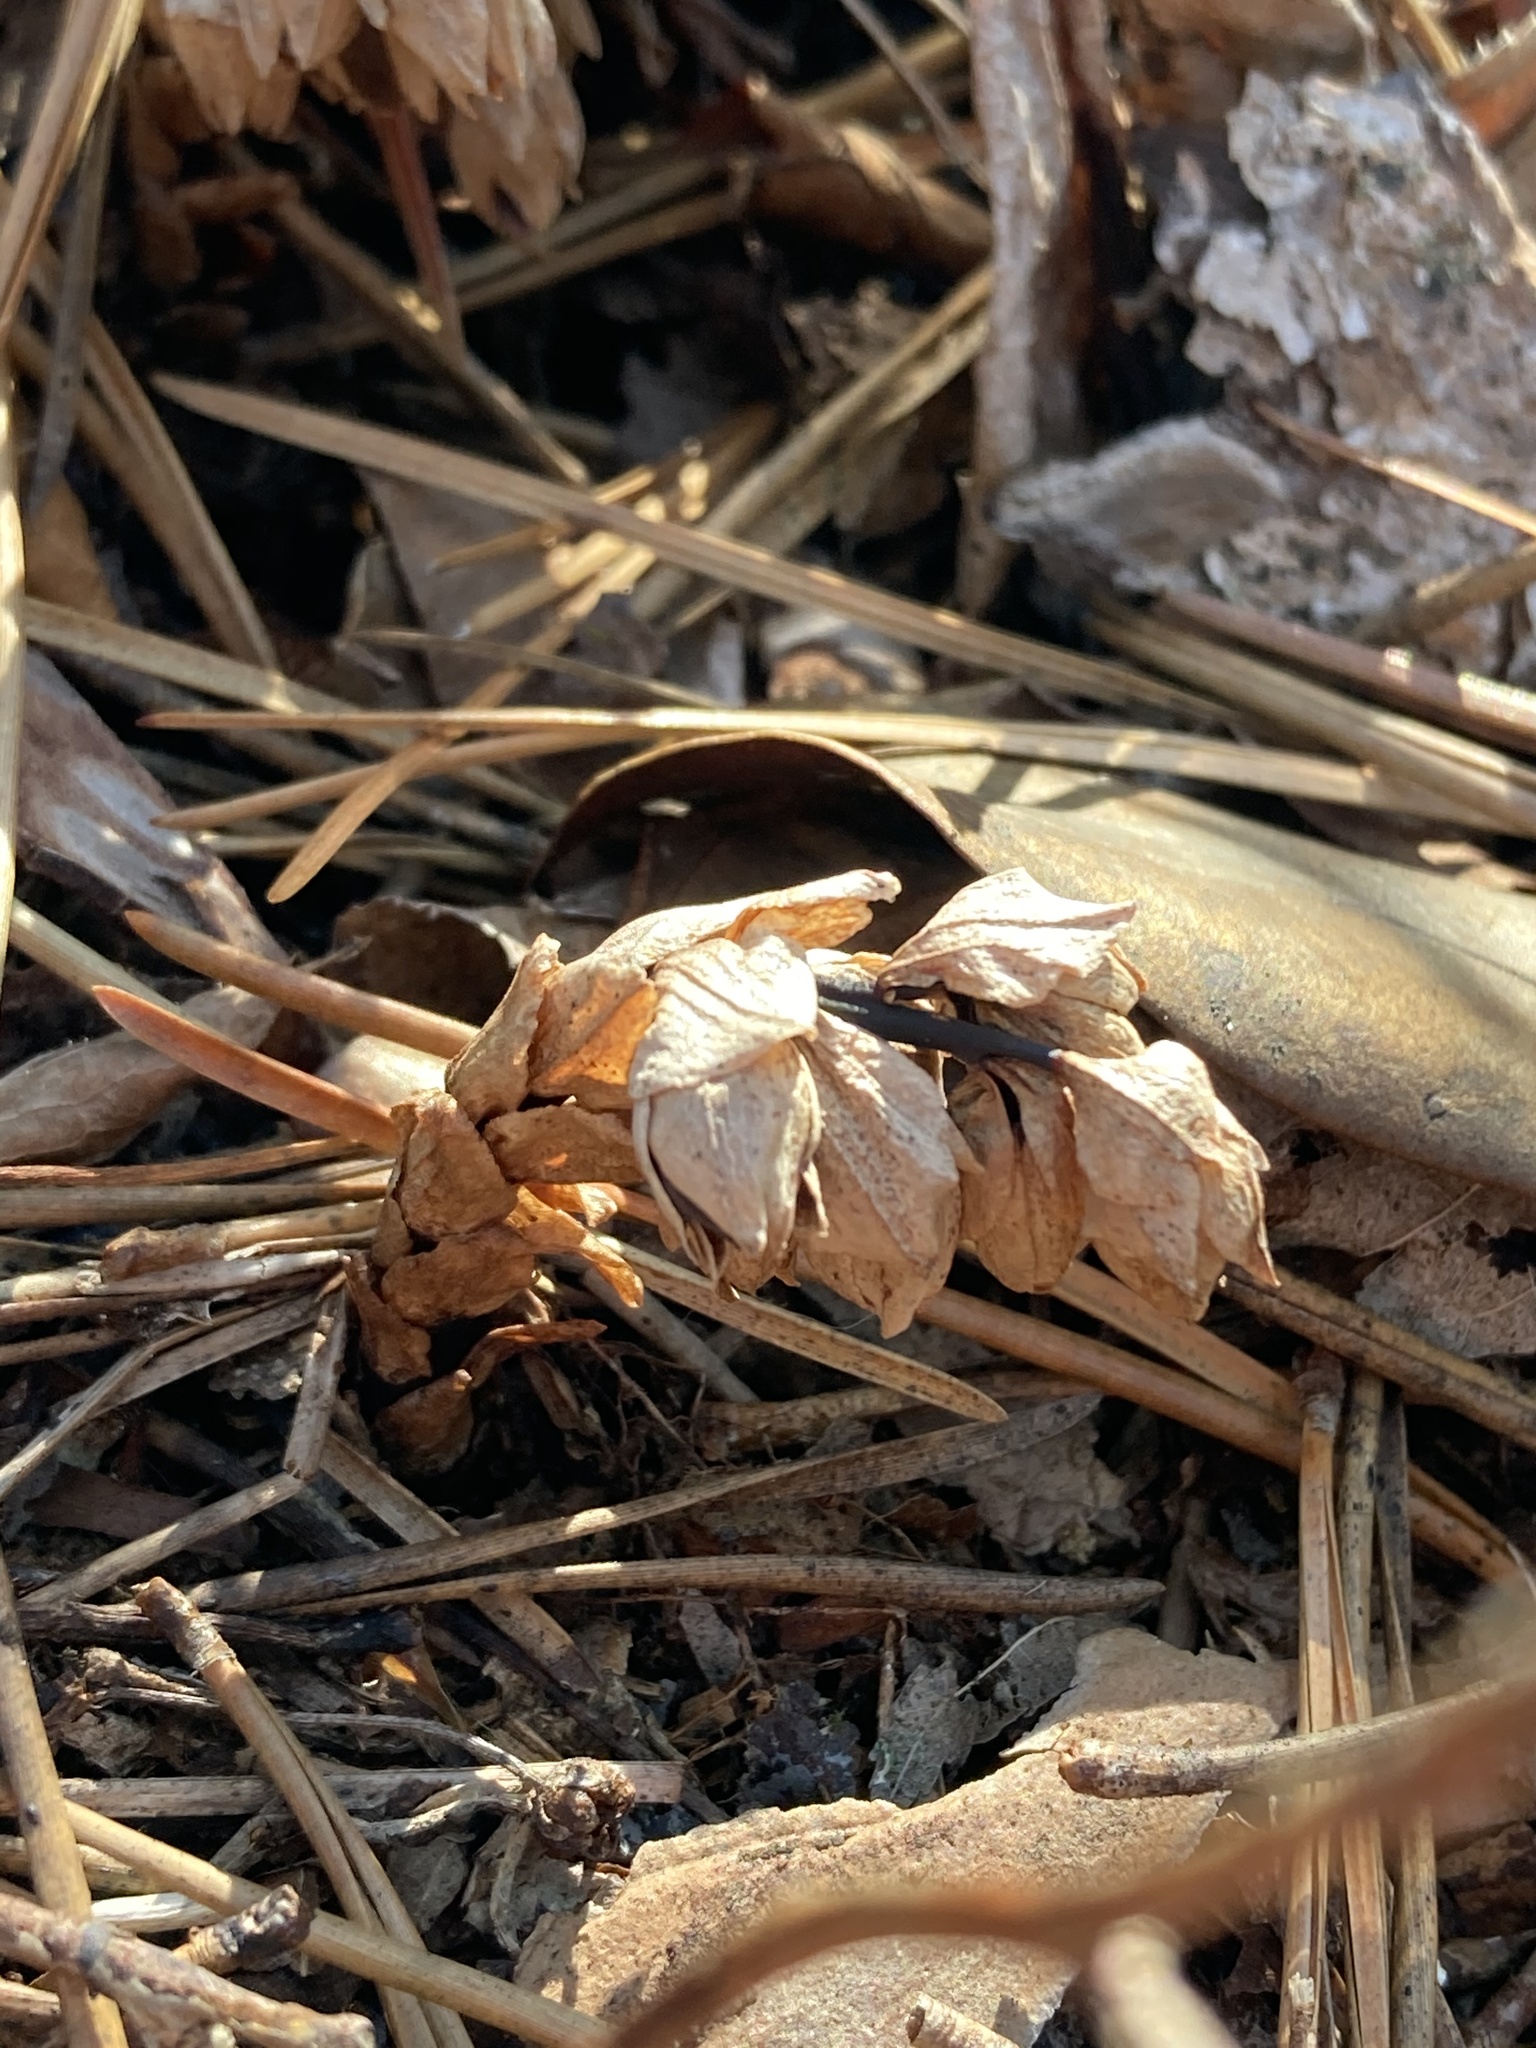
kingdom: Plantae
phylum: Tracheophyta
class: Magnoliopsida
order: Ericales
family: Ericaceae
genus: Monotropsis
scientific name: Monotropsis odorata
